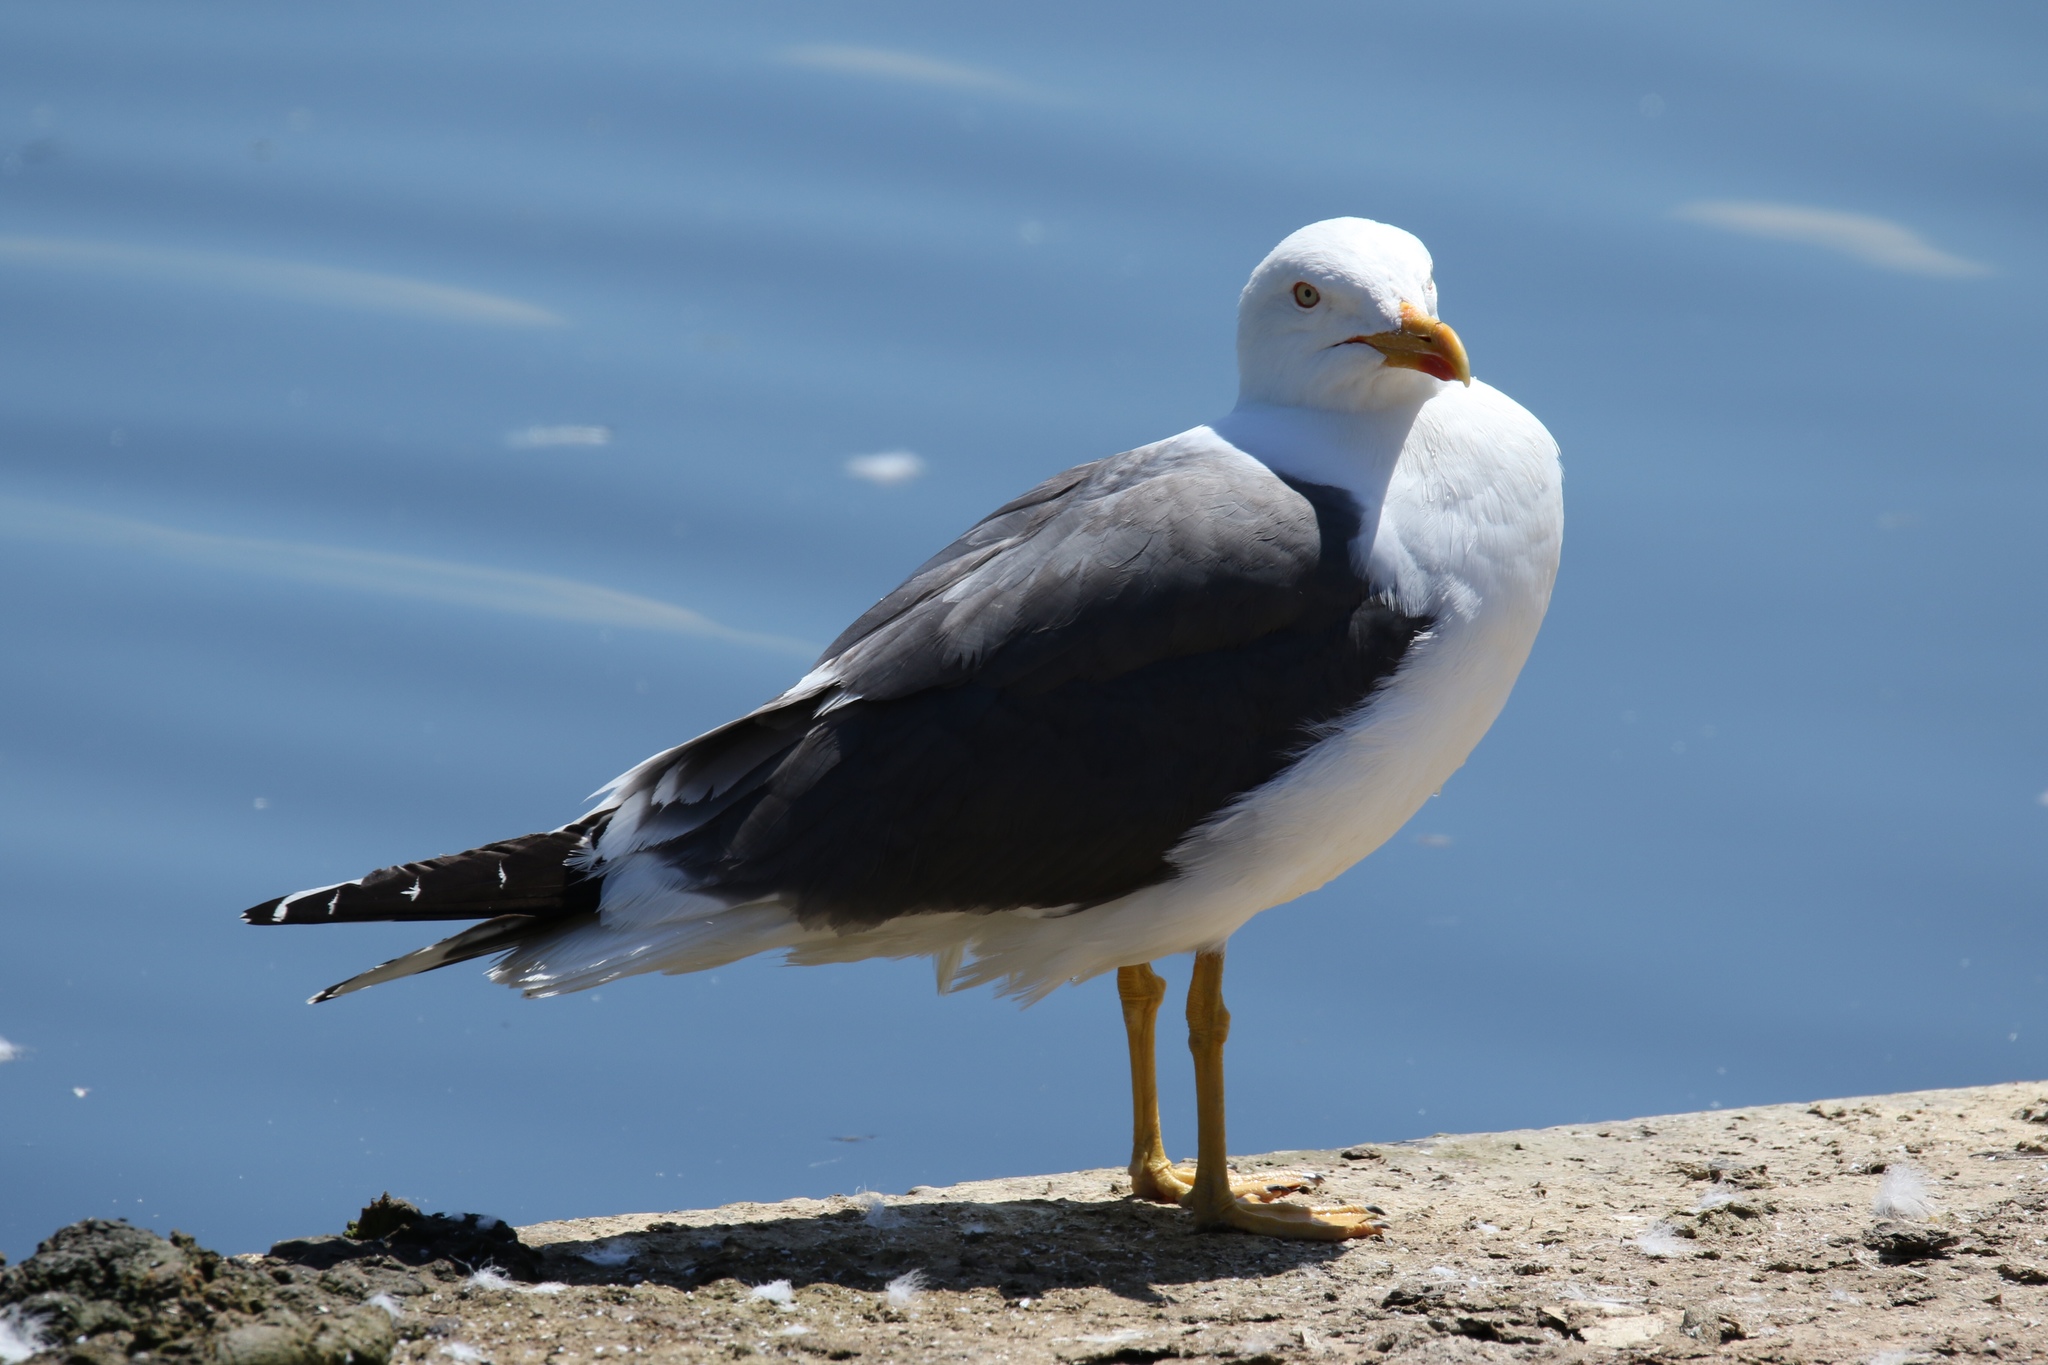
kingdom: Animalia
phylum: Chordata
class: Aves
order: Charadriiformes
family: Laridae
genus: Larus
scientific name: Larus fuscus
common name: Lesser black-backed gull
